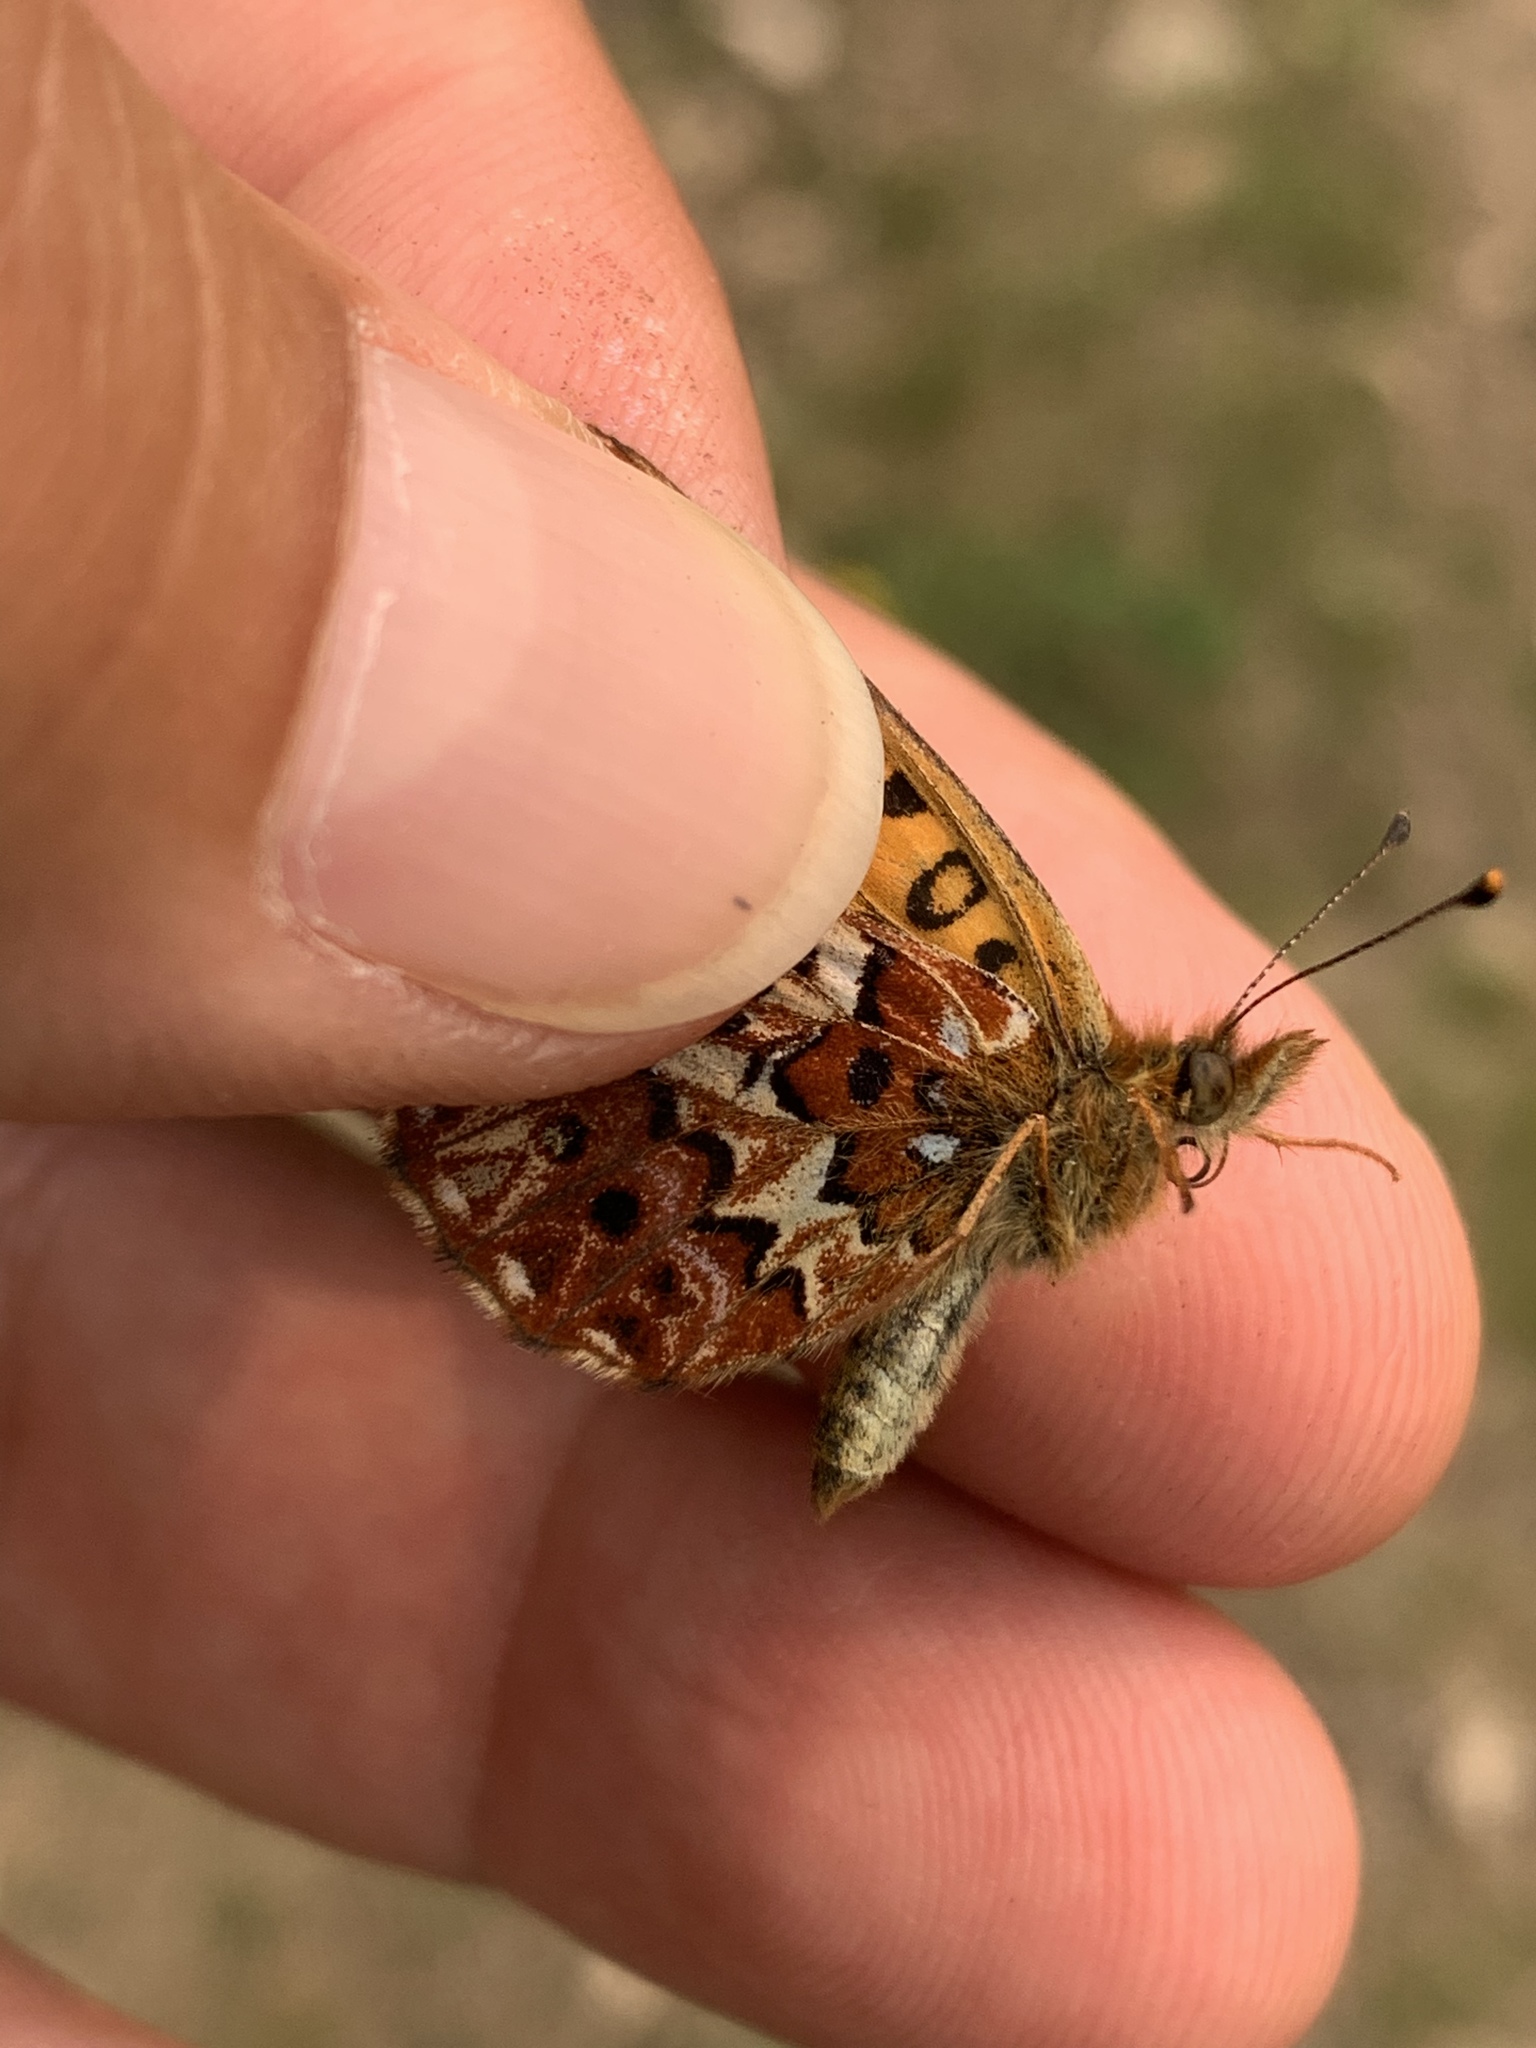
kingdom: Animalia
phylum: Arthropoda
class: Insecta
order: Lepidoptera
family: Nymphalidae
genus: Boloria
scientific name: Boloria chariclea
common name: Arctic fritillary
